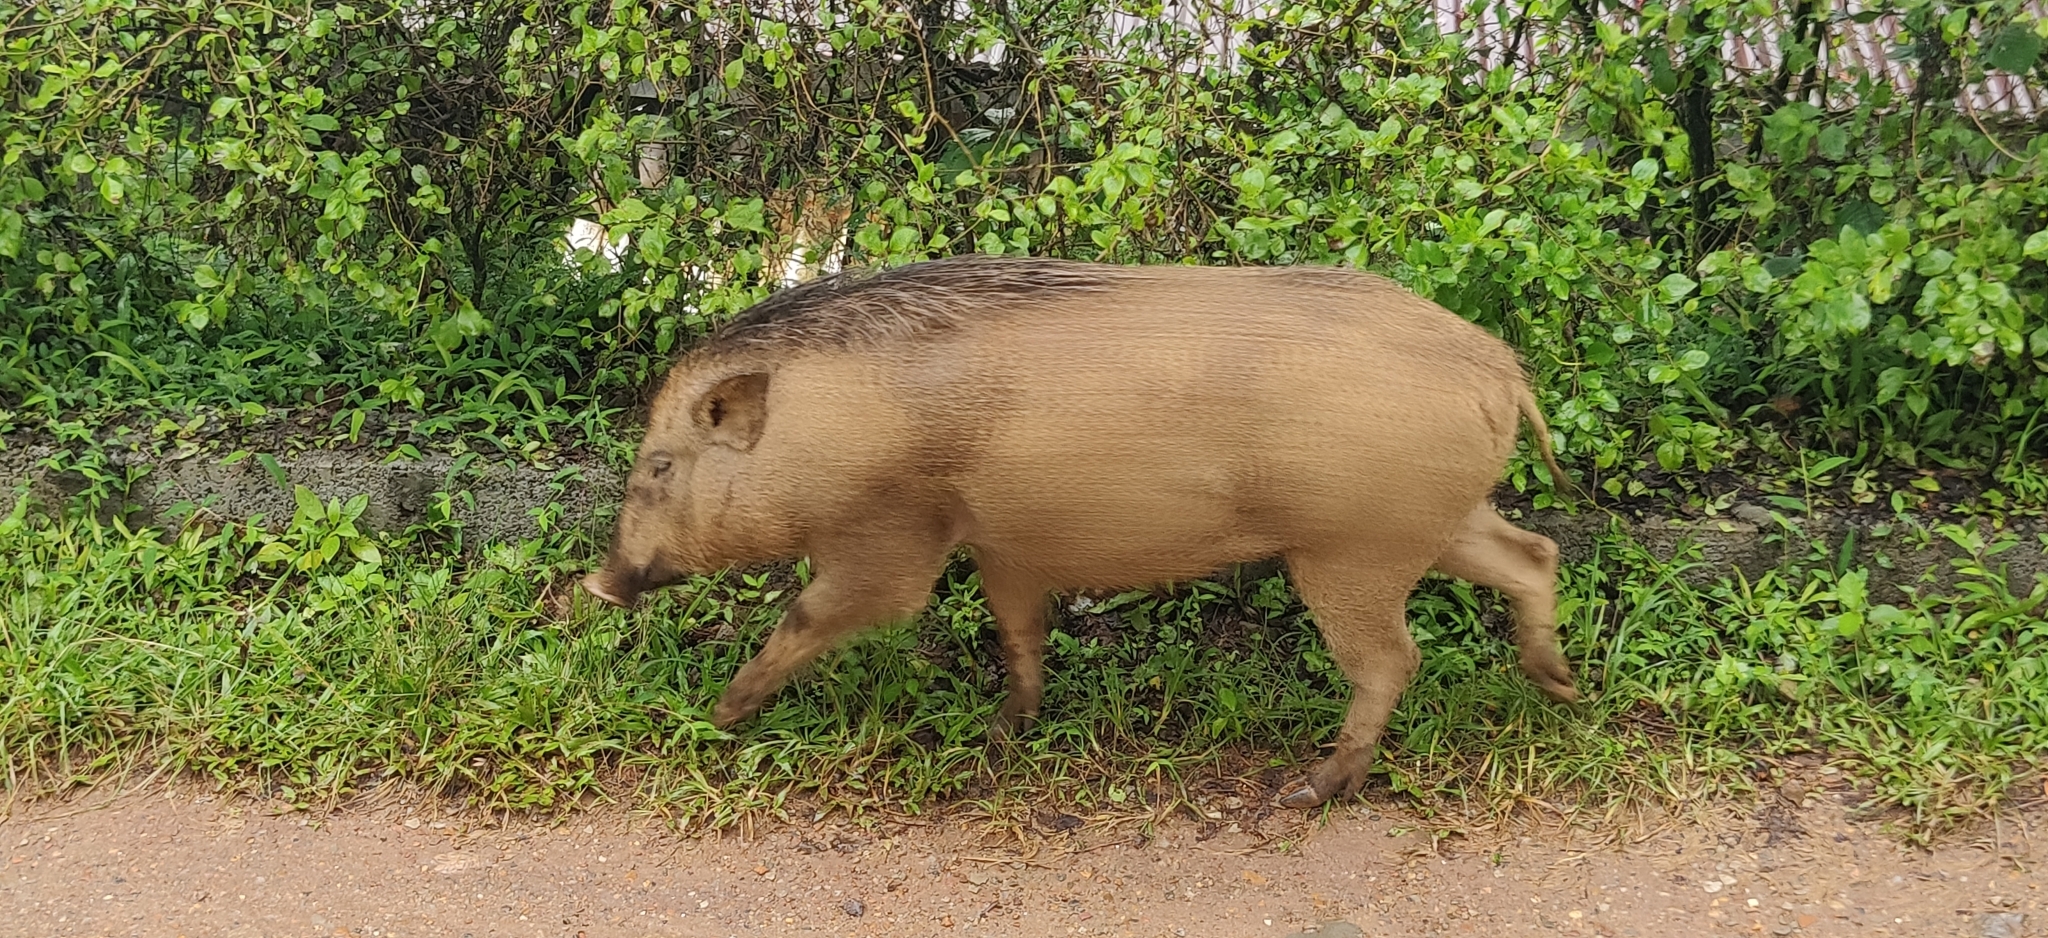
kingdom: Animalia
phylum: Chordata
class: Mammalia
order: Artiodactyla
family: Suidae
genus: Sus
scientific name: Sus scrofa
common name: Wild boar
